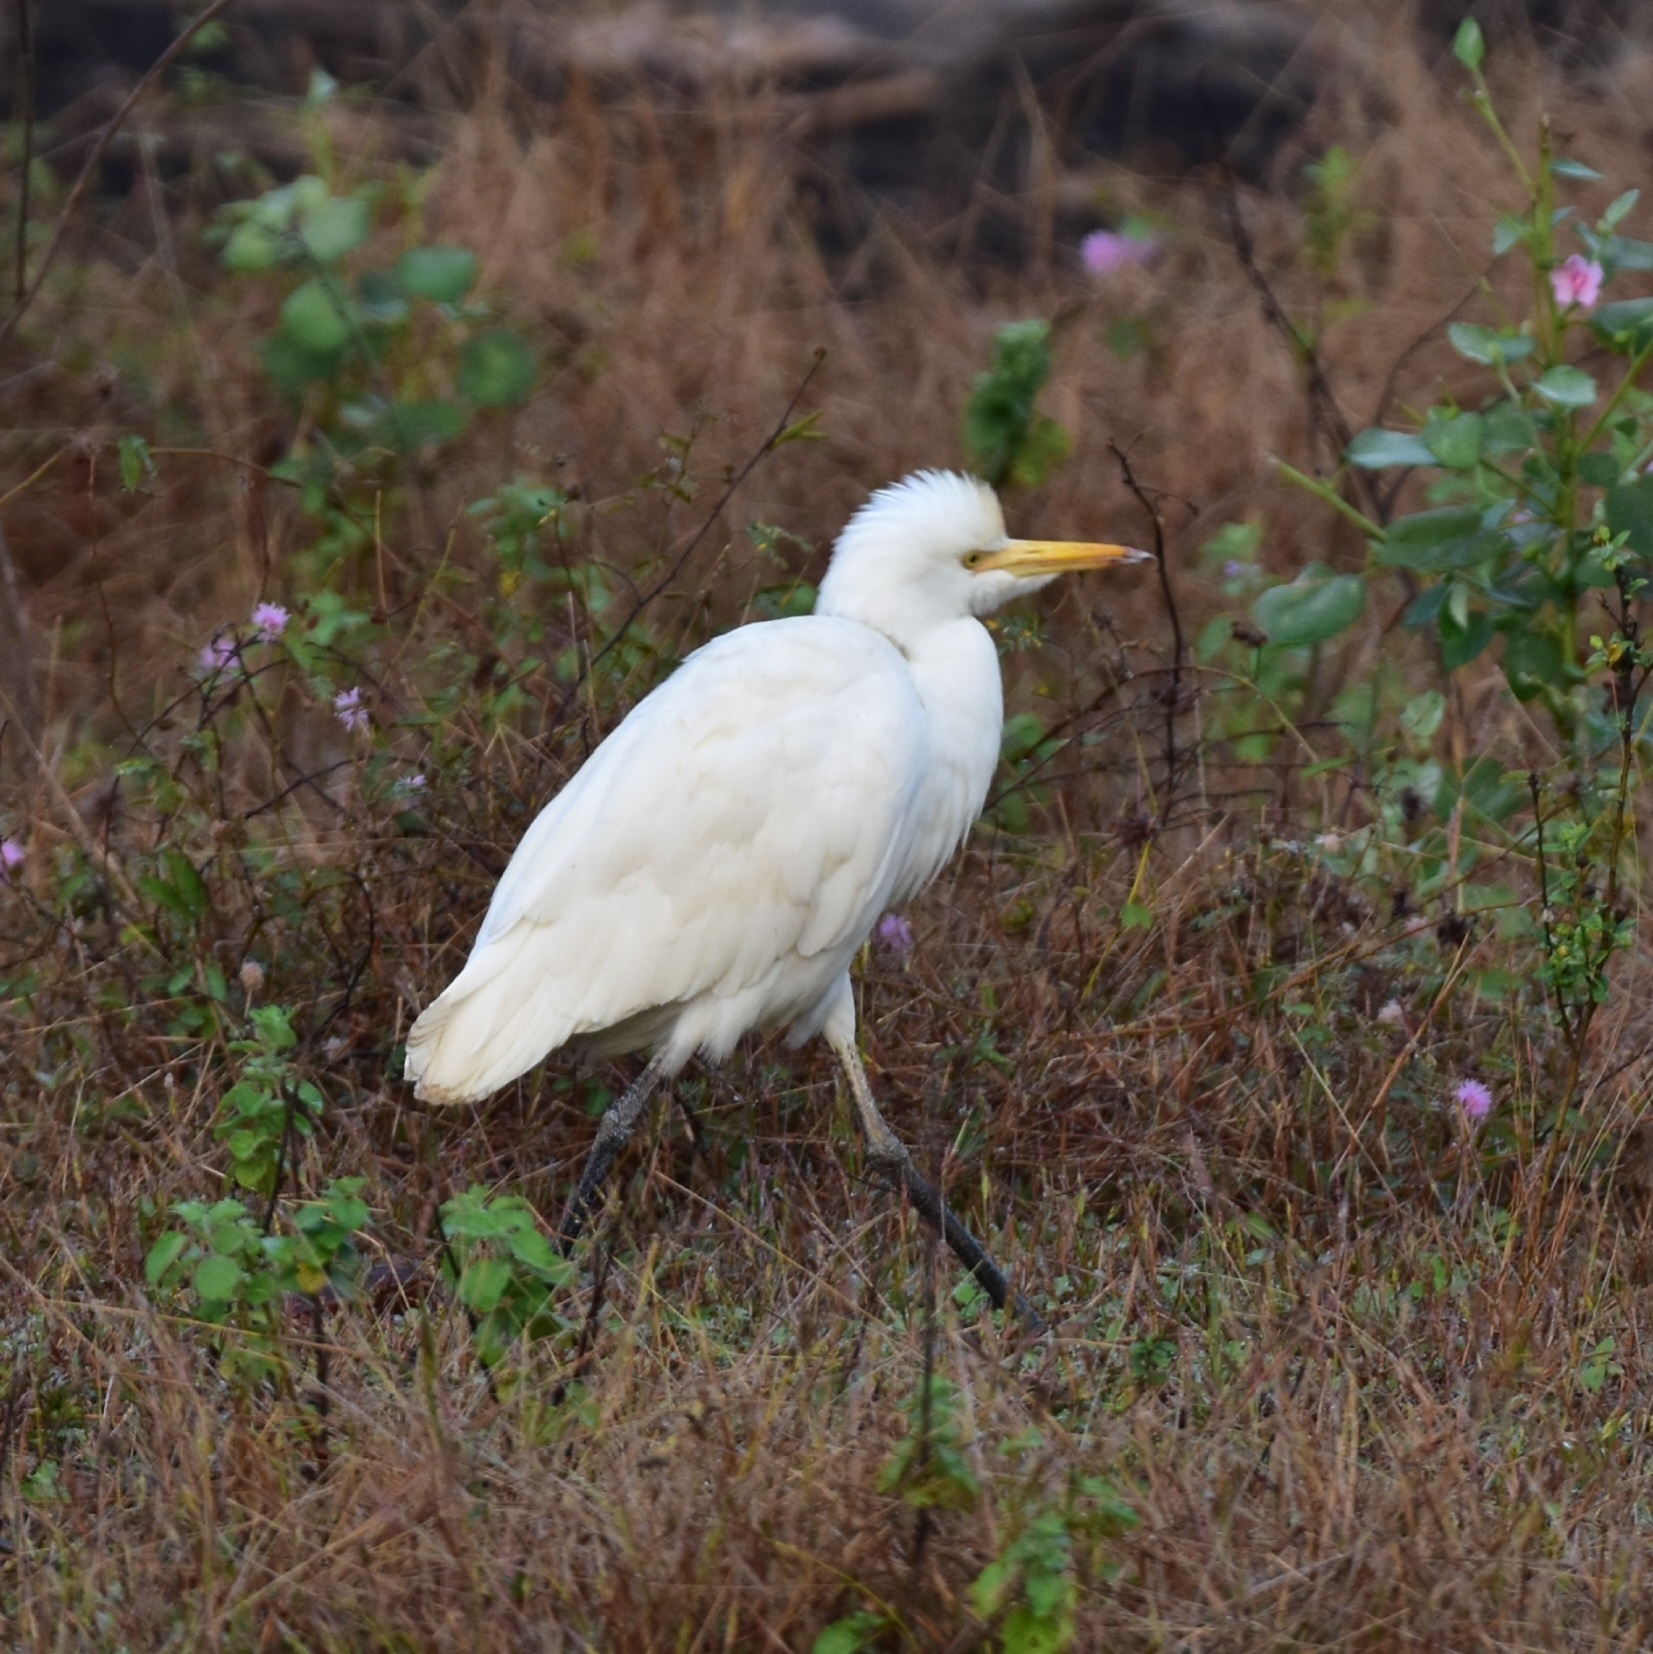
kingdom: Animalia
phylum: Chordata
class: Aves
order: Pelecaniformes
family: Ardeidae
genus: Bubulcus
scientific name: Bubulcus coromandus
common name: Eastern cattle egret
